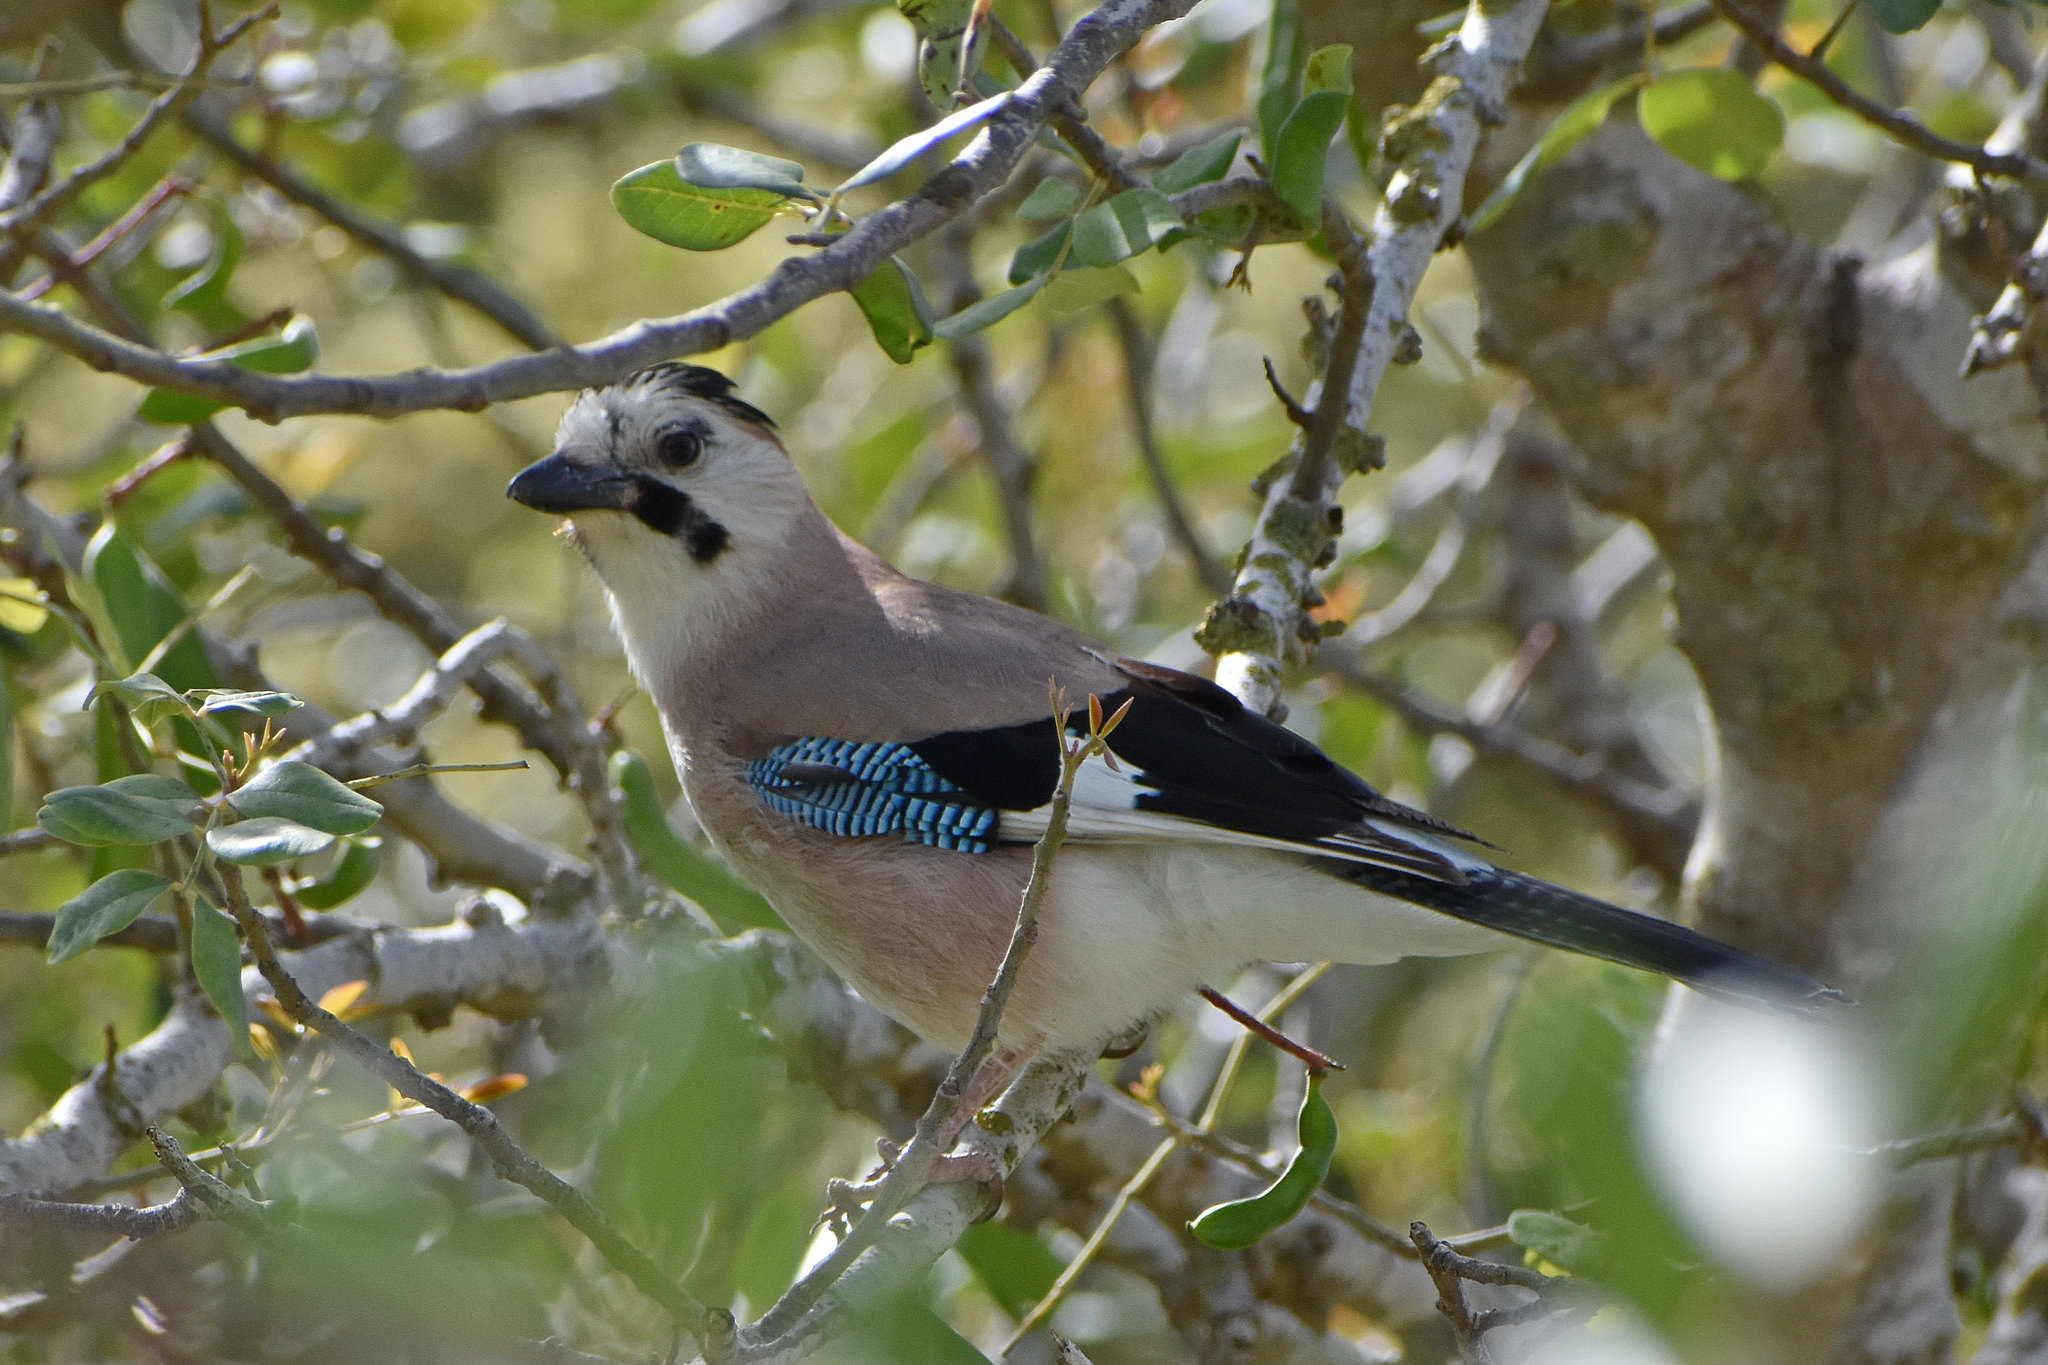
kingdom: Animalia
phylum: Chordata
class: Aves
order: Passeriformes
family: Corvidae
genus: Garrulus
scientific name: Garrulus glandarius
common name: Eurasian jay
